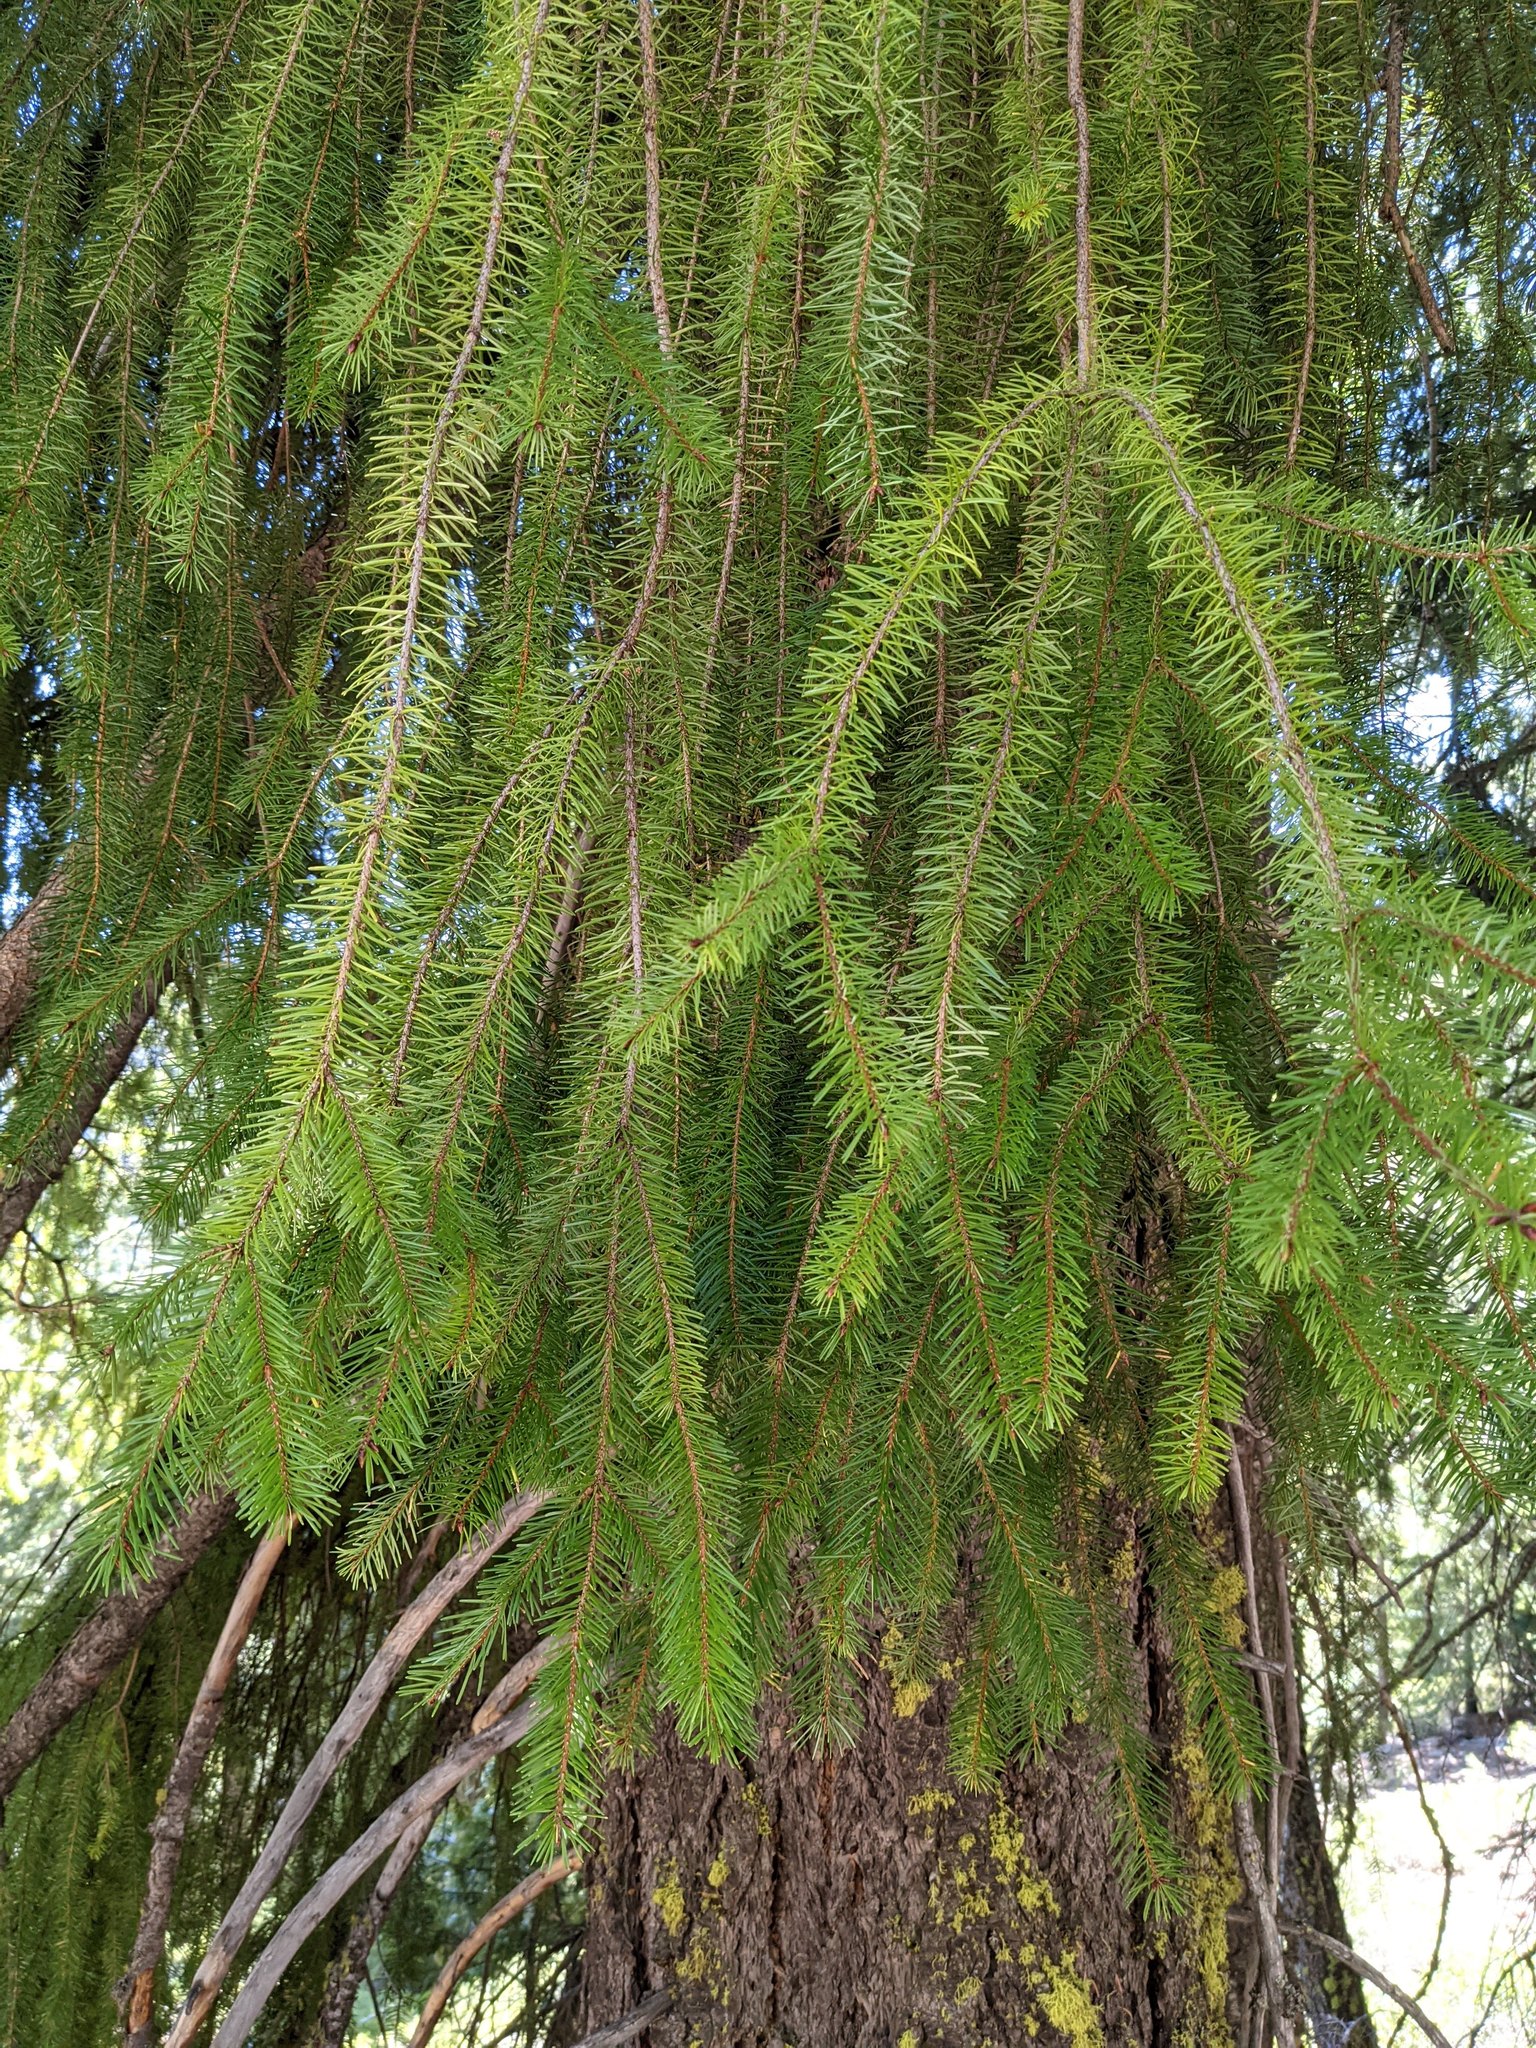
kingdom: Plantae
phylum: Tracheophyta
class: Pinopsida
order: Pinales
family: Pinaceae
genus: Pseudotsuga
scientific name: Pseudotsuga menziesii
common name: Douglas fir
